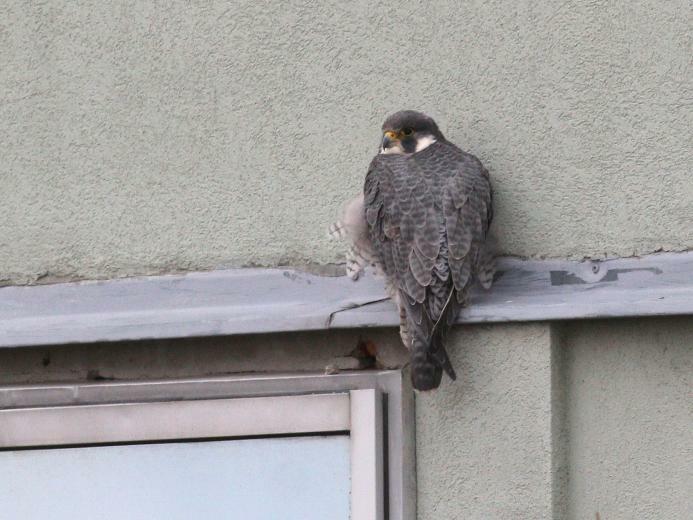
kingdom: Animalia
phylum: Chordata
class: Aves
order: Falconiformes
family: Falconidae
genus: Falco
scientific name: Falco peregrinus
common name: Peregrine falcon
